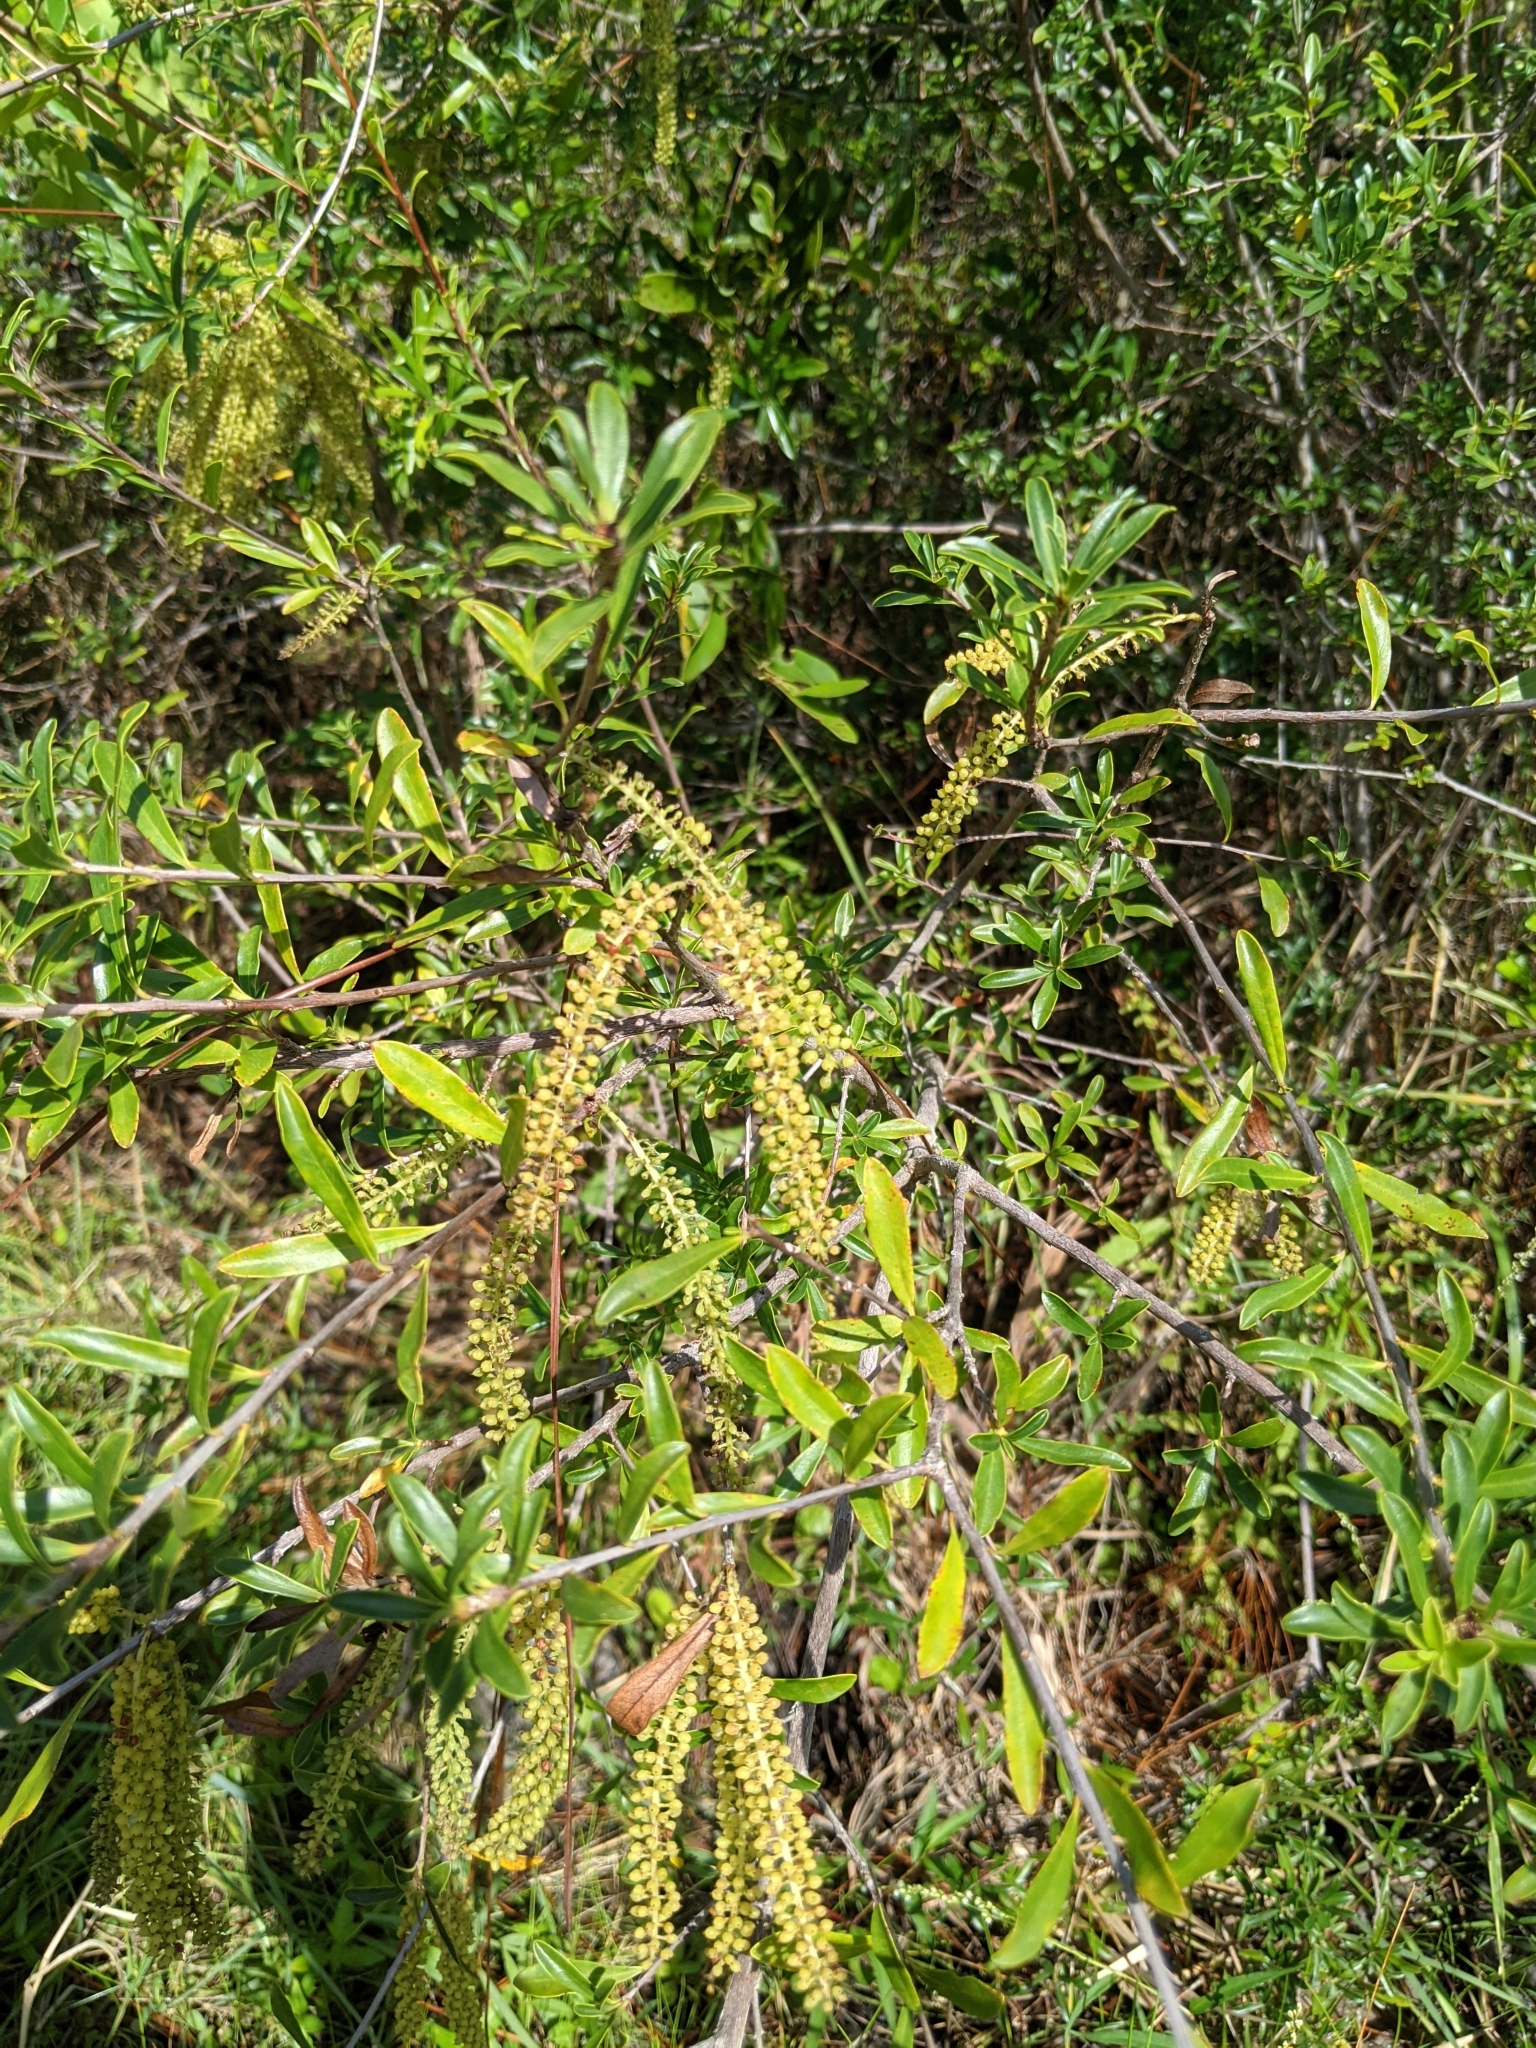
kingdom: Plantae
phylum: Tracheophyta
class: Magnoliopsida
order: Ericales
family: Cyrillaceae
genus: Cyrilla
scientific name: Cyrilla racemiflora
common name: Black titi
